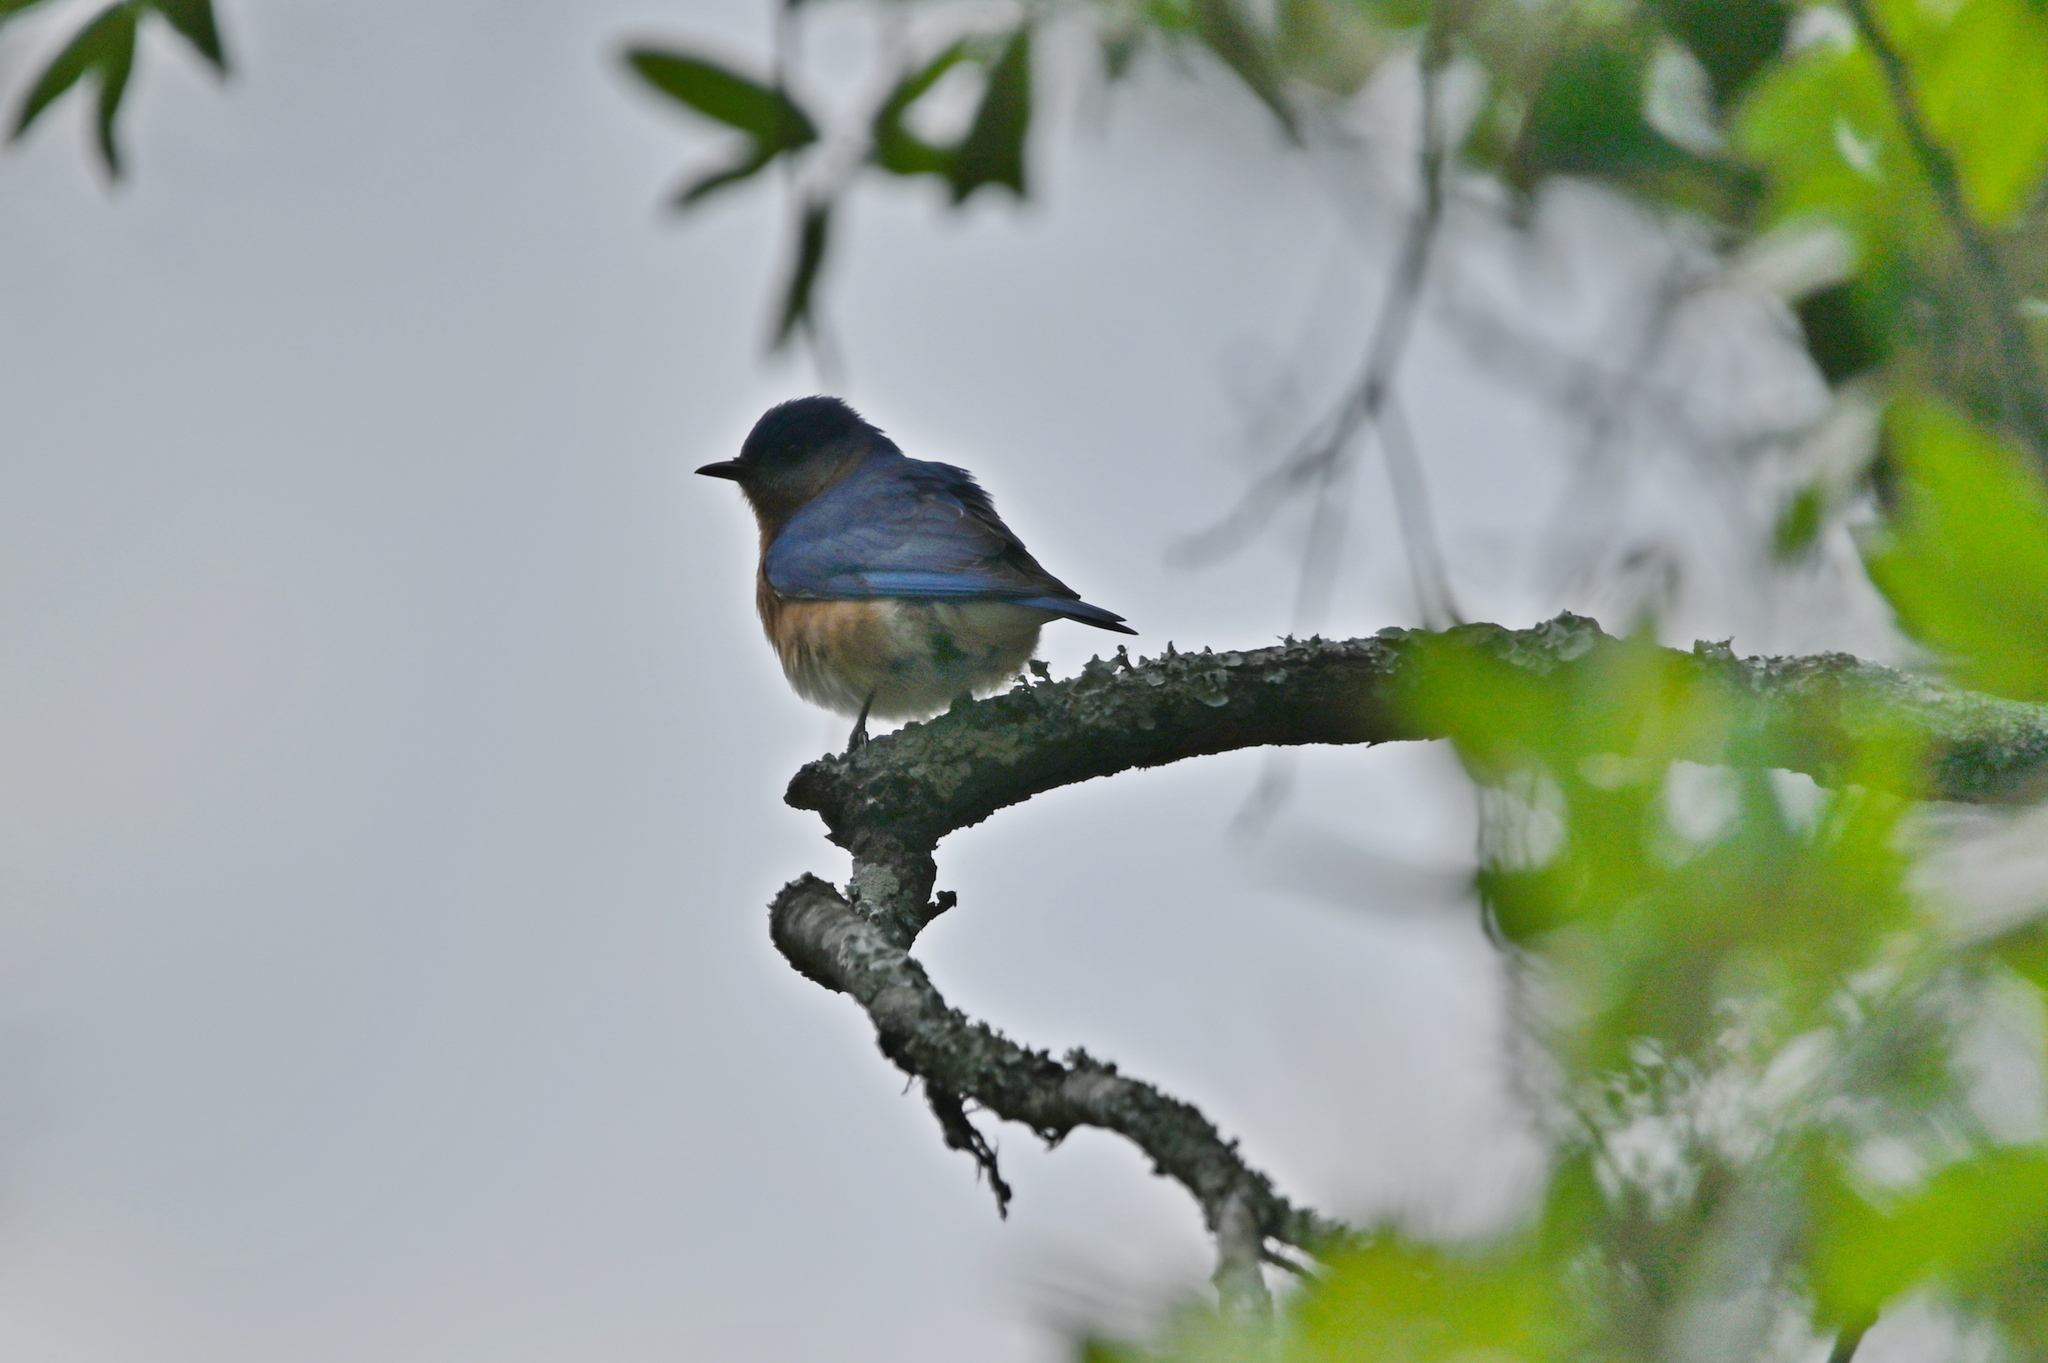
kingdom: Animalia
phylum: Chordata
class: Aves
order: Passeriformes
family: Turdidae
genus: Sialia
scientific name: Sialia sialis
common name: Eastern bluebird
